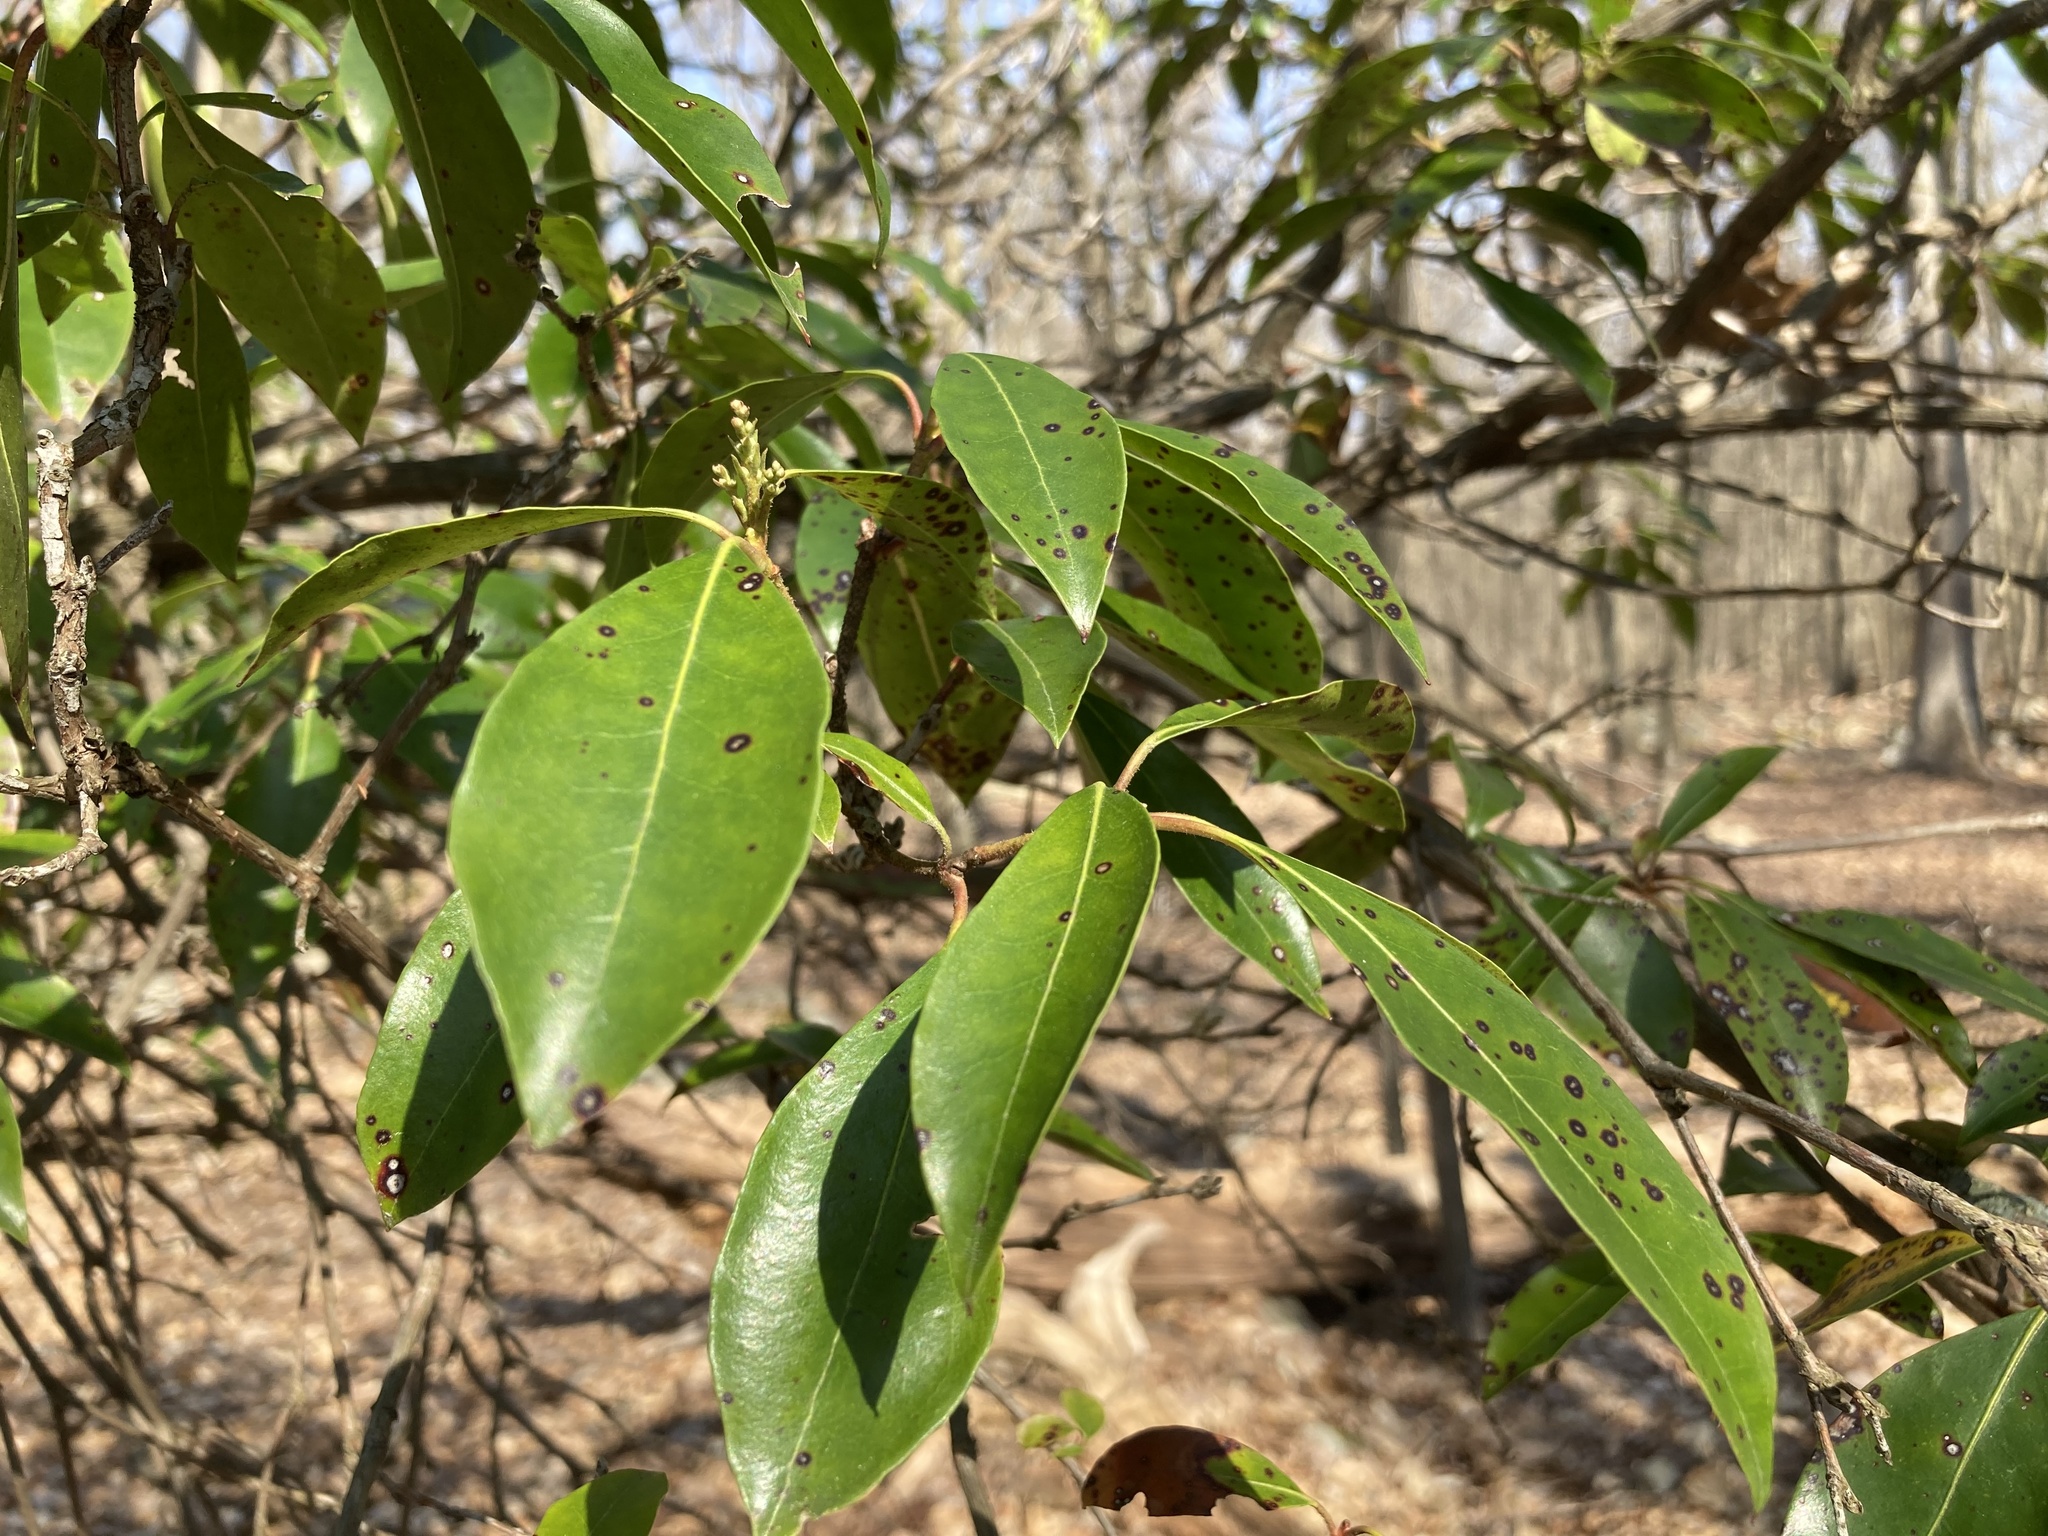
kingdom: Plantae
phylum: Tracheophyta
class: Magnoliopsida
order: Ericales
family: Ericaceae
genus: Kalmia
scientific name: Kalmia latifolia
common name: Mountain-laurel
